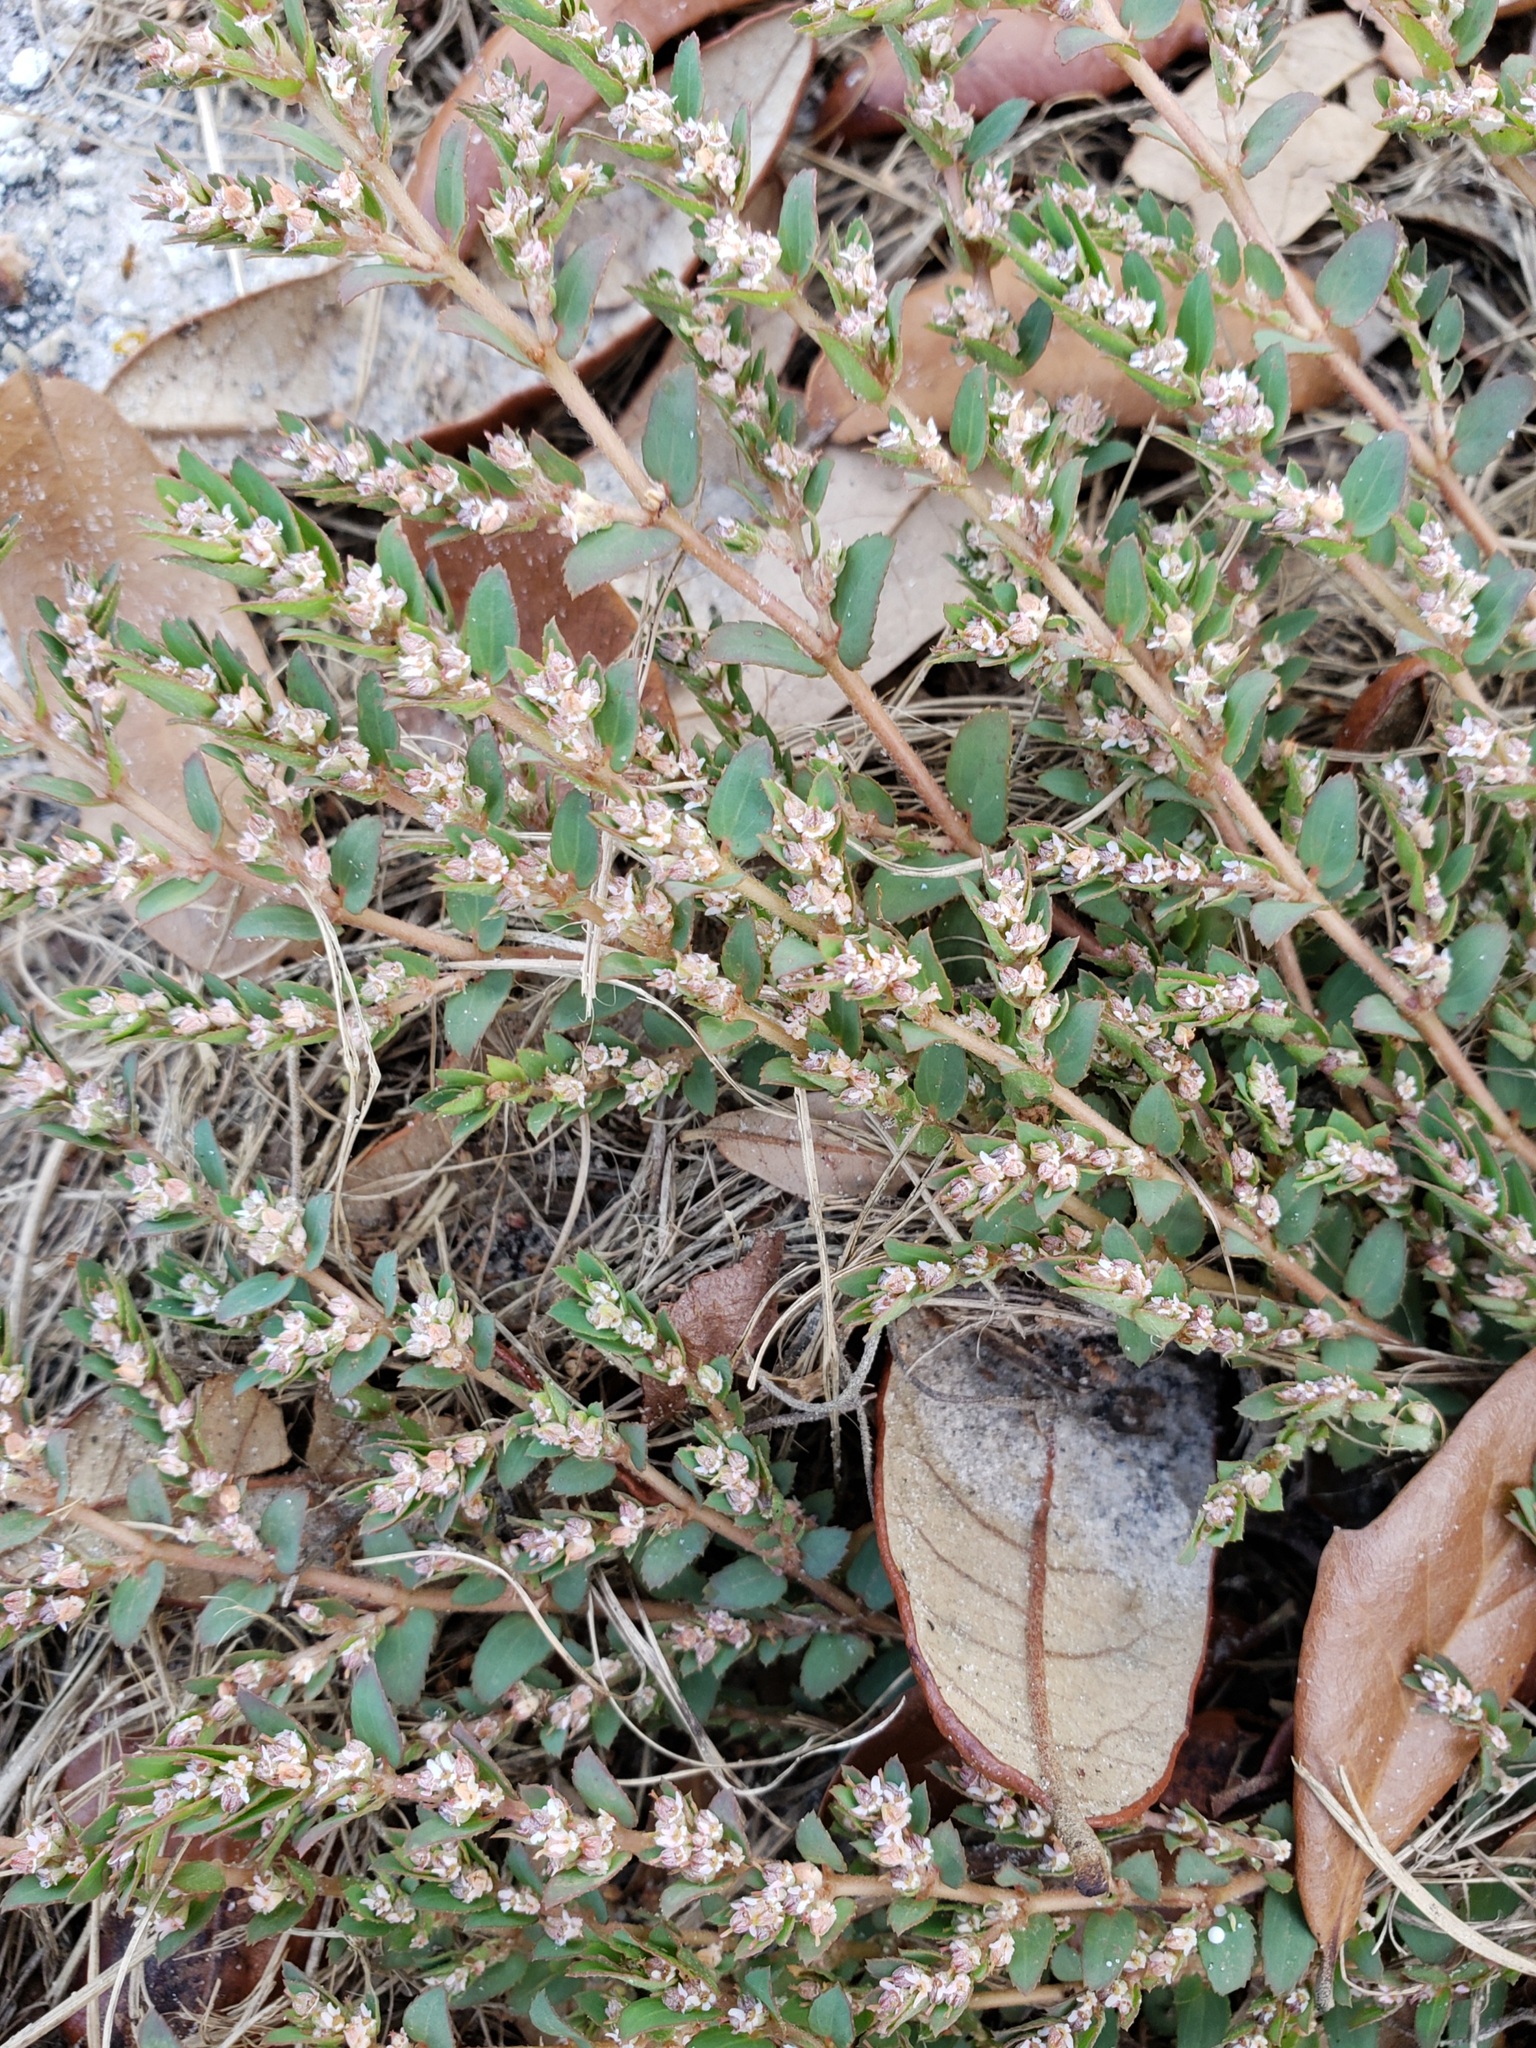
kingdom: Plantae
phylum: Tracheophyta
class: Magnoliopsida
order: Malpighiales
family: Euphorbiaceae
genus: Euphorbia
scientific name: Euphorbia thymifolia
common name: Gulf sandmat
